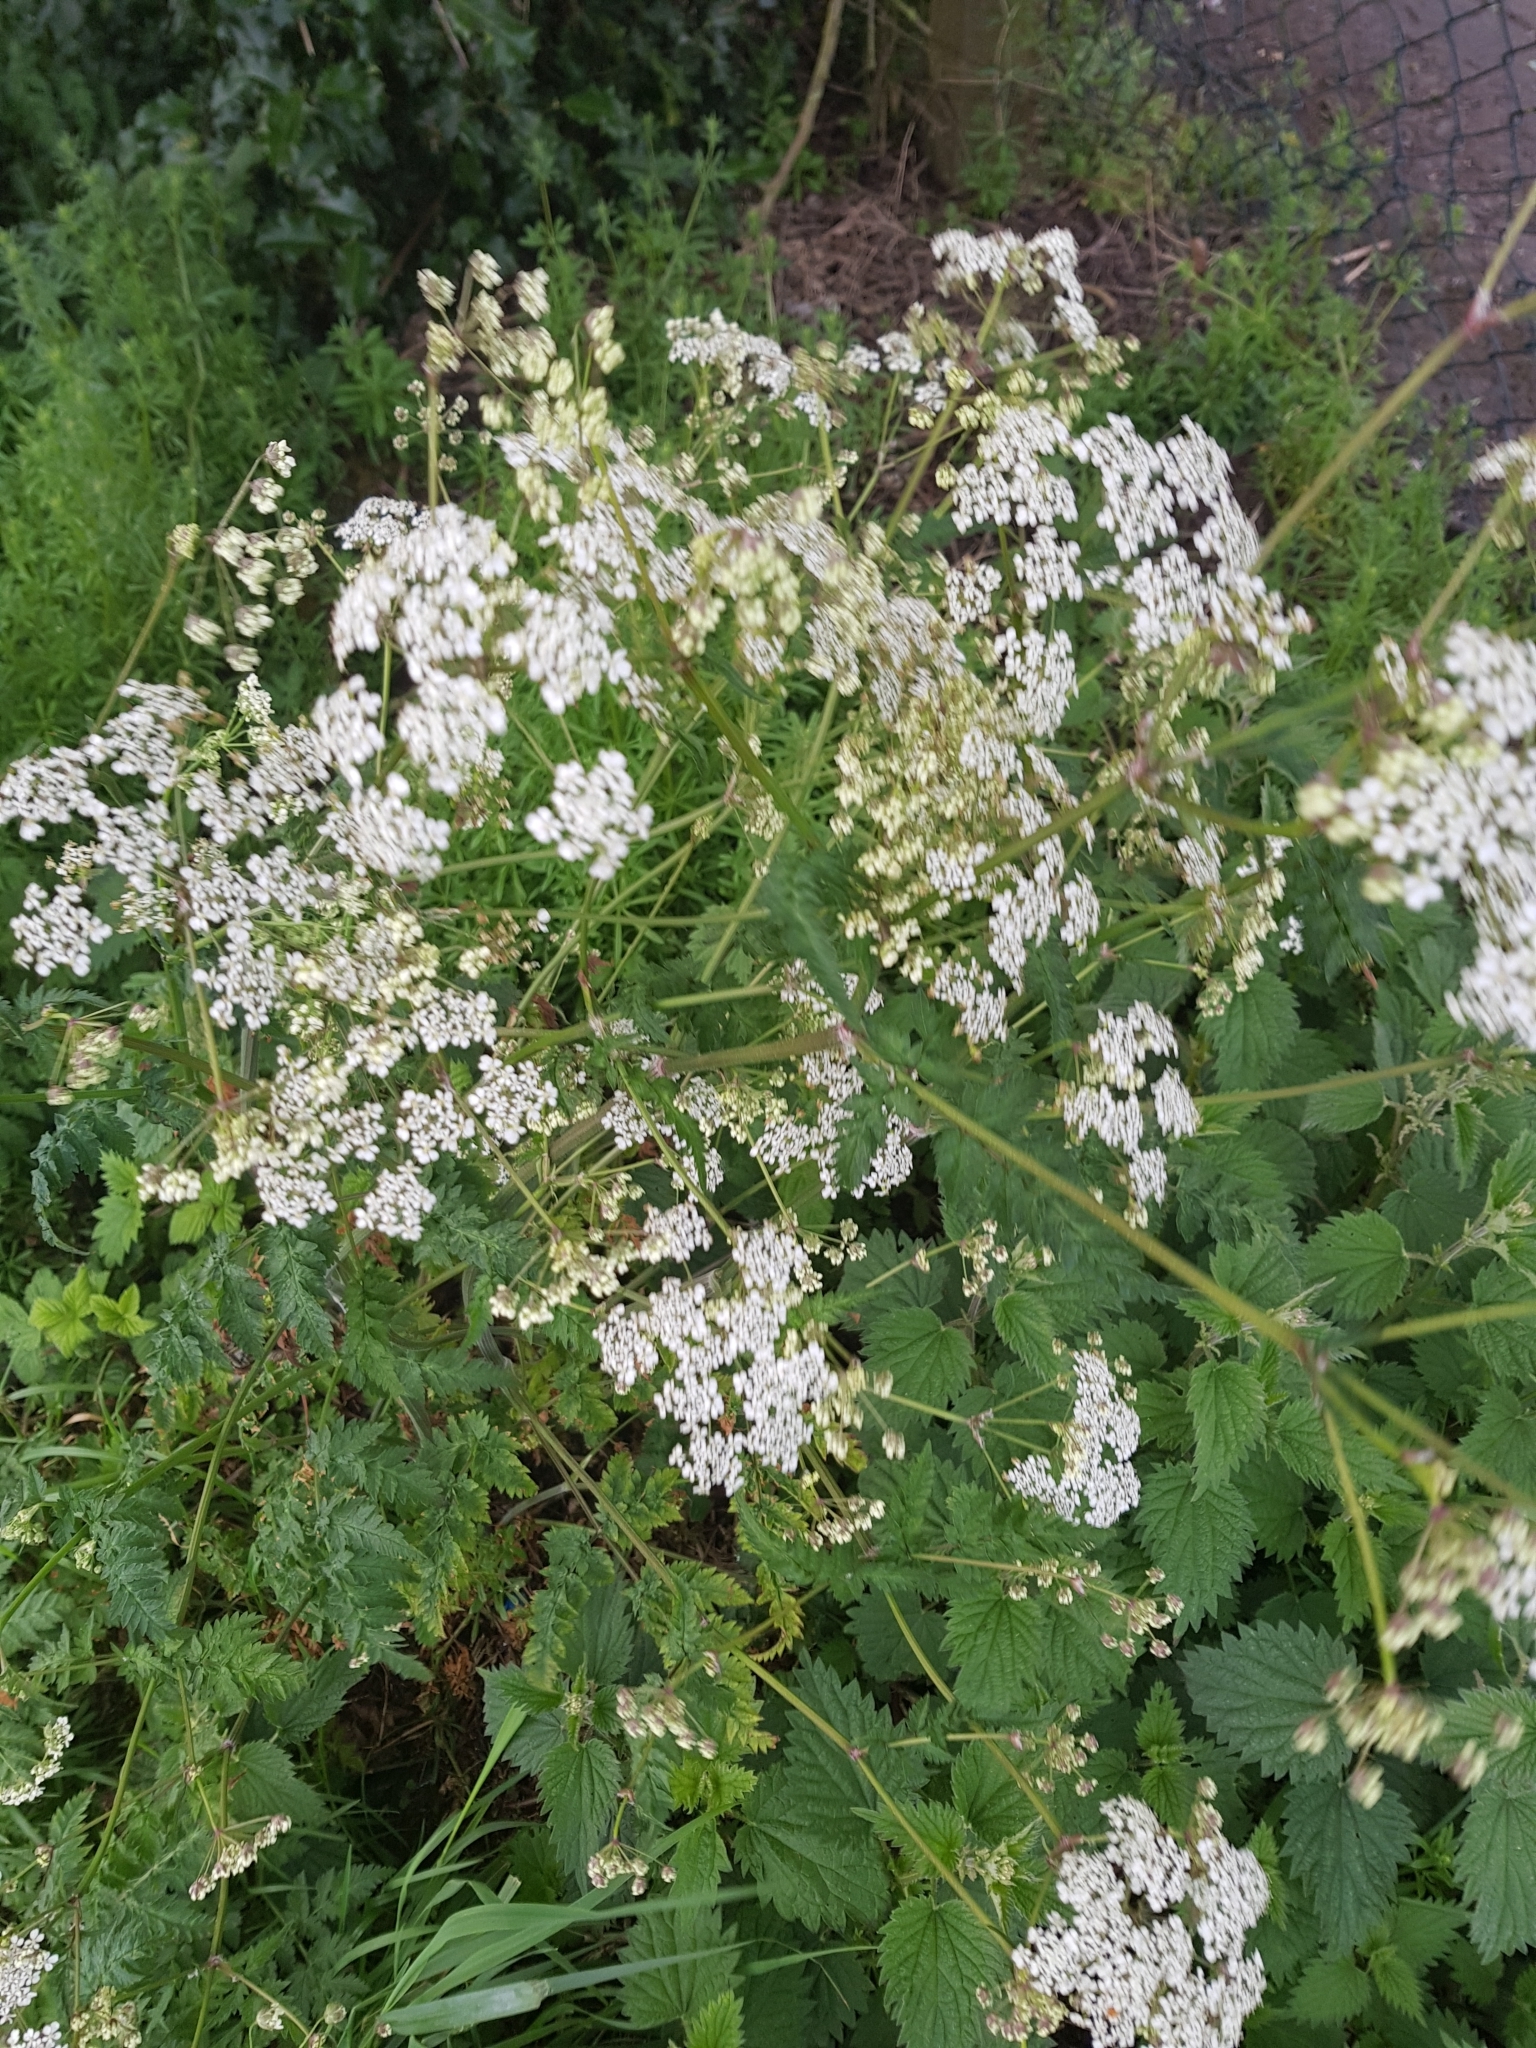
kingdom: Plantae
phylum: Tracheophyta
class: Magnoliopsida
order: Apiales
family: Apiaceae
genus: Anthriscus
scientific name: Anthriscus sylvestris
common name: Cow parsley
